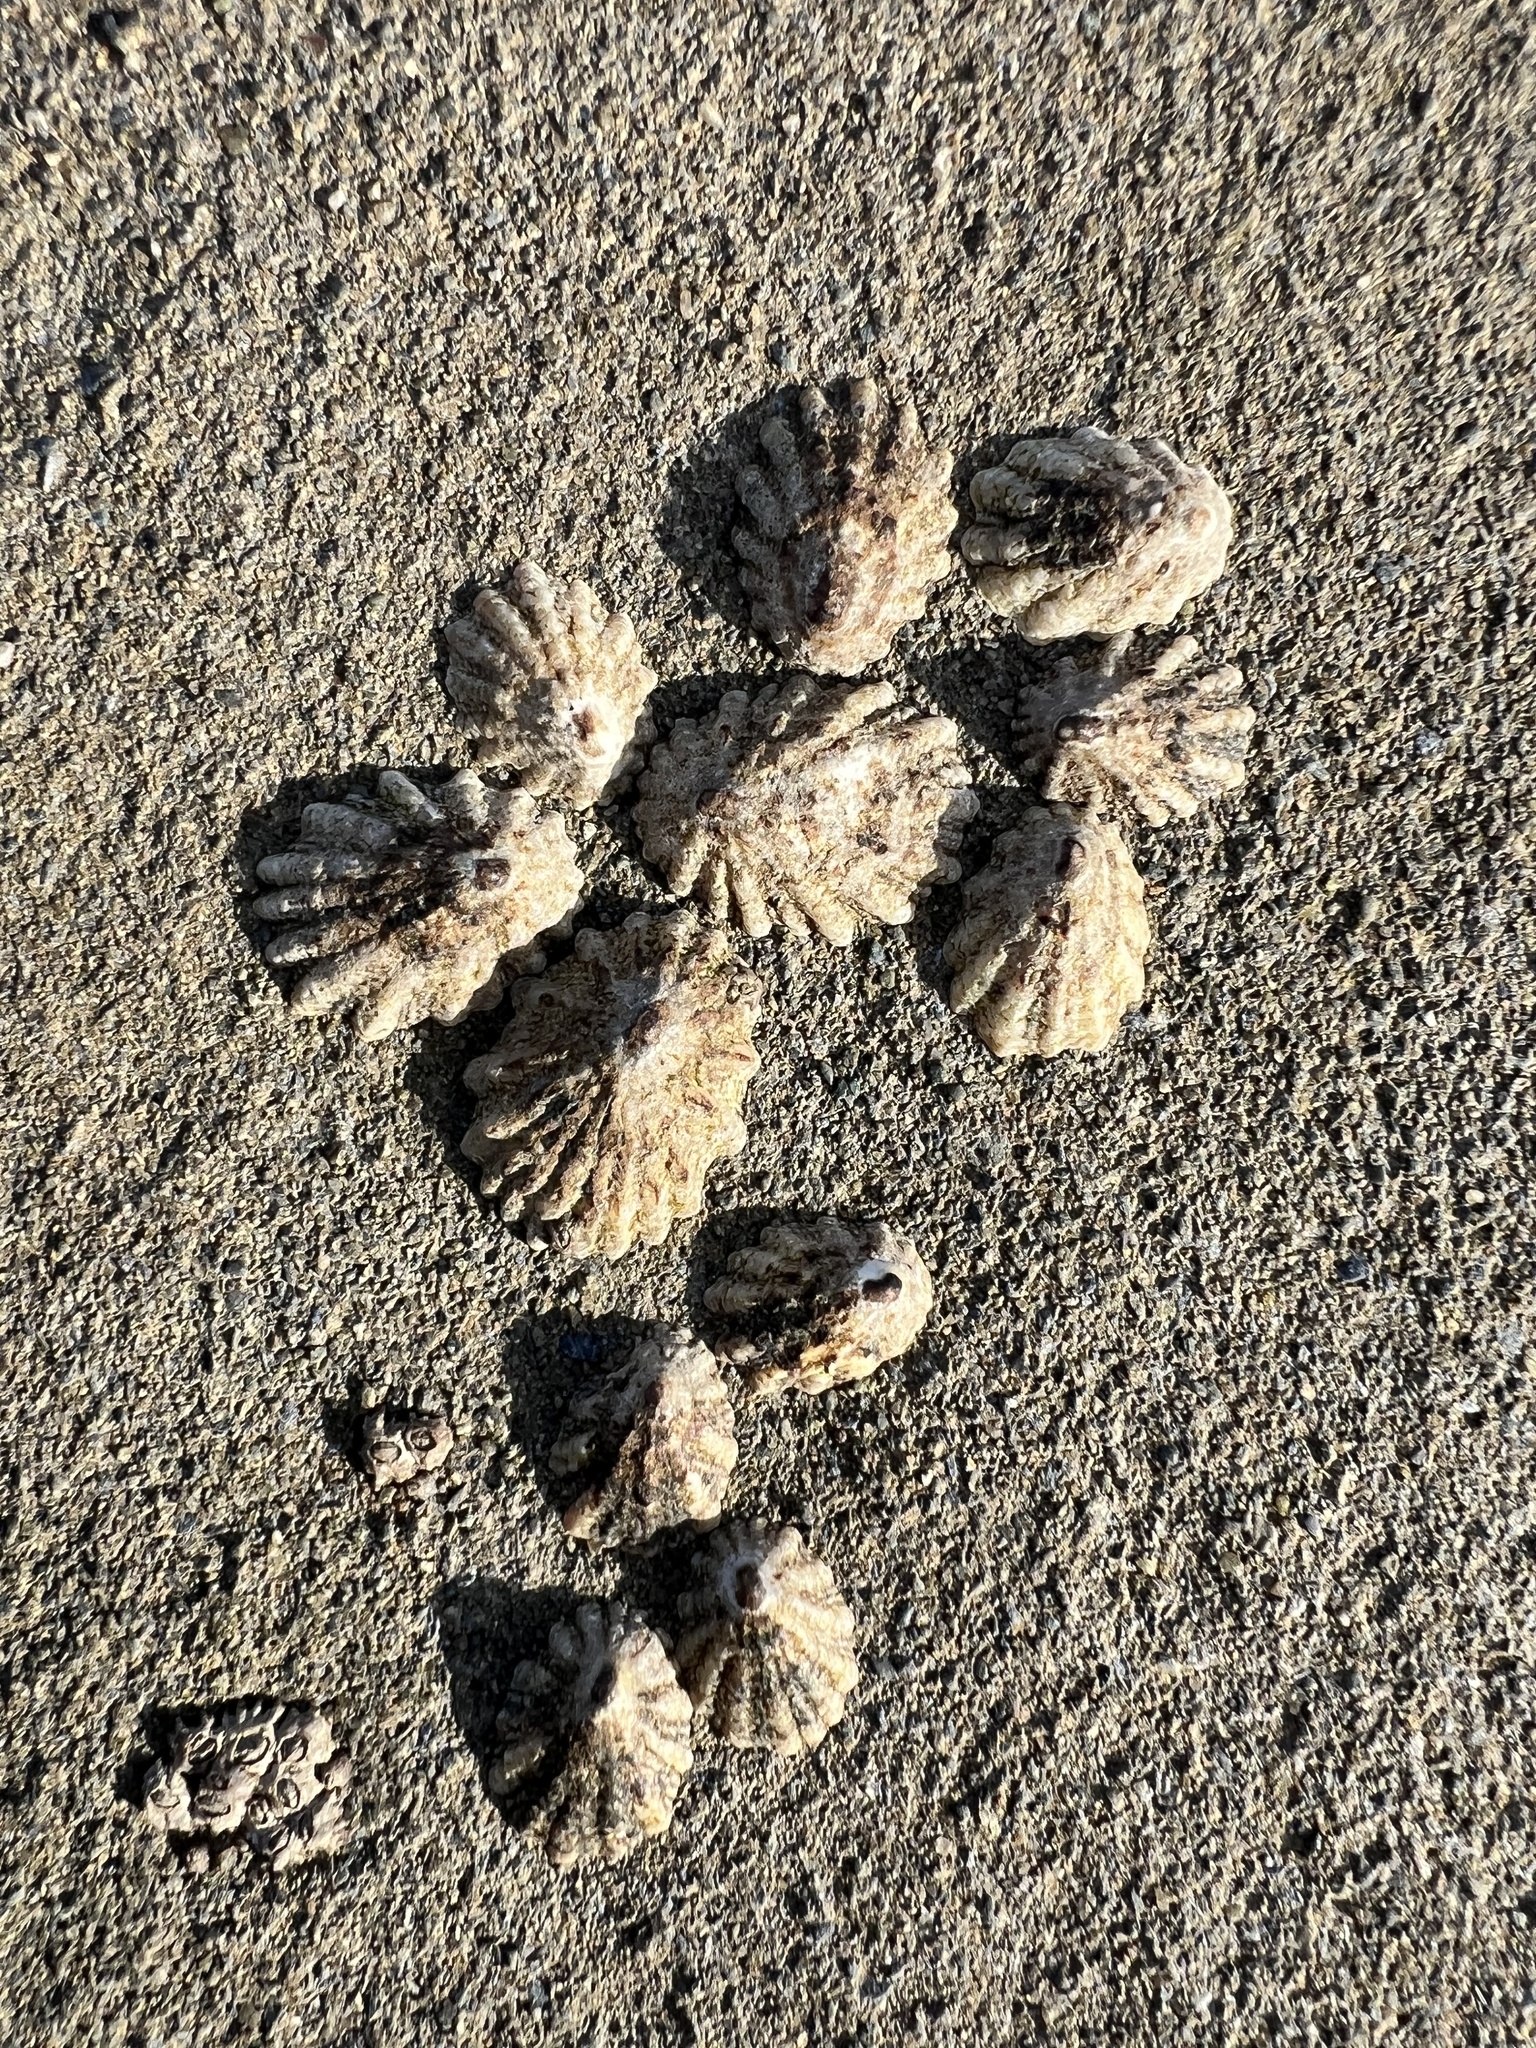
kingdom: Animalia
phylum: Mollusca
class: Gastropoda
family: Lottiidae
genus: Lottia
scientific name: Lottia scabra
